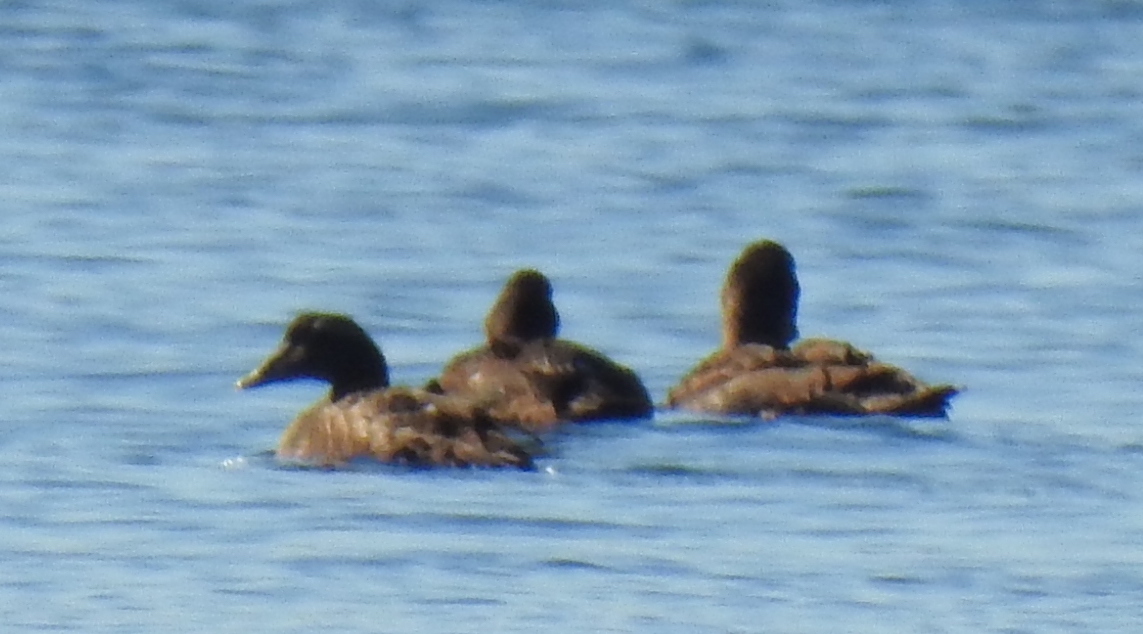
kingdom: Animalia
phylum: Chordata
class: Aves
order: Anseriformes
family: Anatidae
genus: Somateria
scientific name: Somateria mollissima
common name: Common eider
